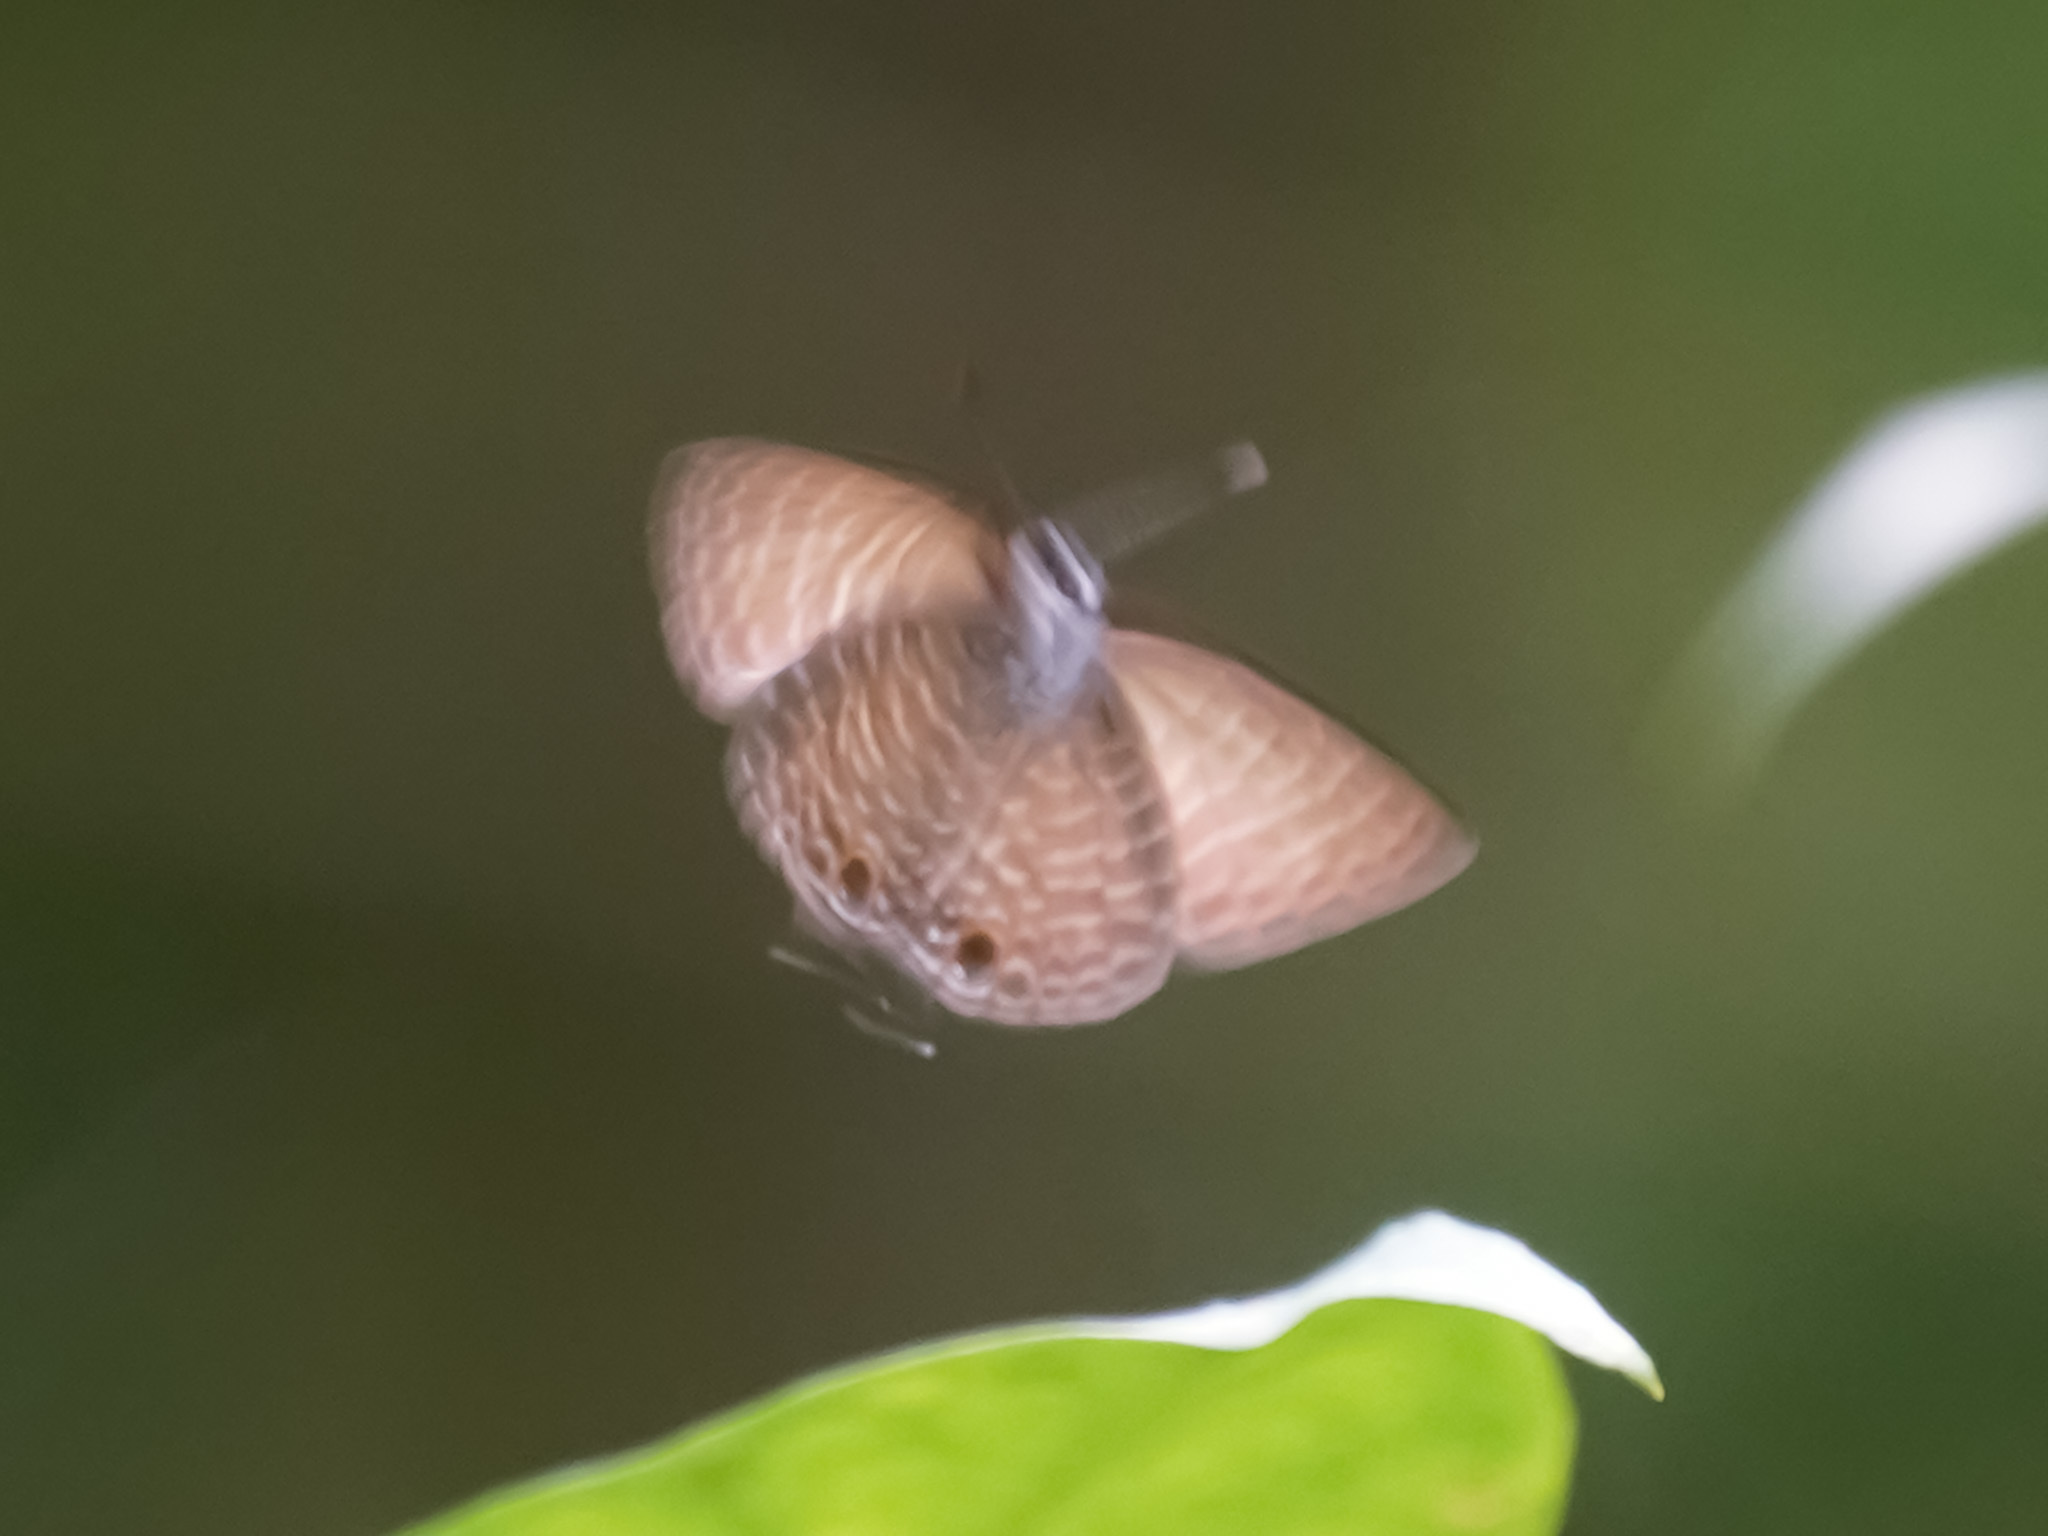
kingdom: Animalia
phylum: Arthropoda
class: Insecta
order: Lepidoptera
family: Lycaenidae
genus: Nacaduba
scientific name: Nacaduba kurava
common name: Transparent 6-line blue
